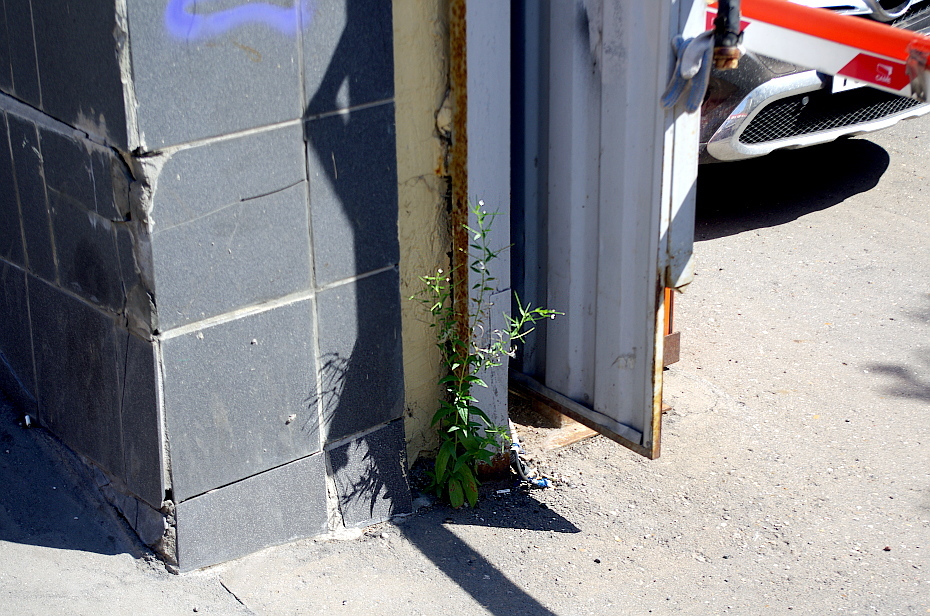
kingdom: Plantae
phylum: Tracheophyta
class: Magnoliopsida
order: Myrtales
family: Onagraceae
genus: Epilobium
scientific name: Epilobium pseudorubescens
